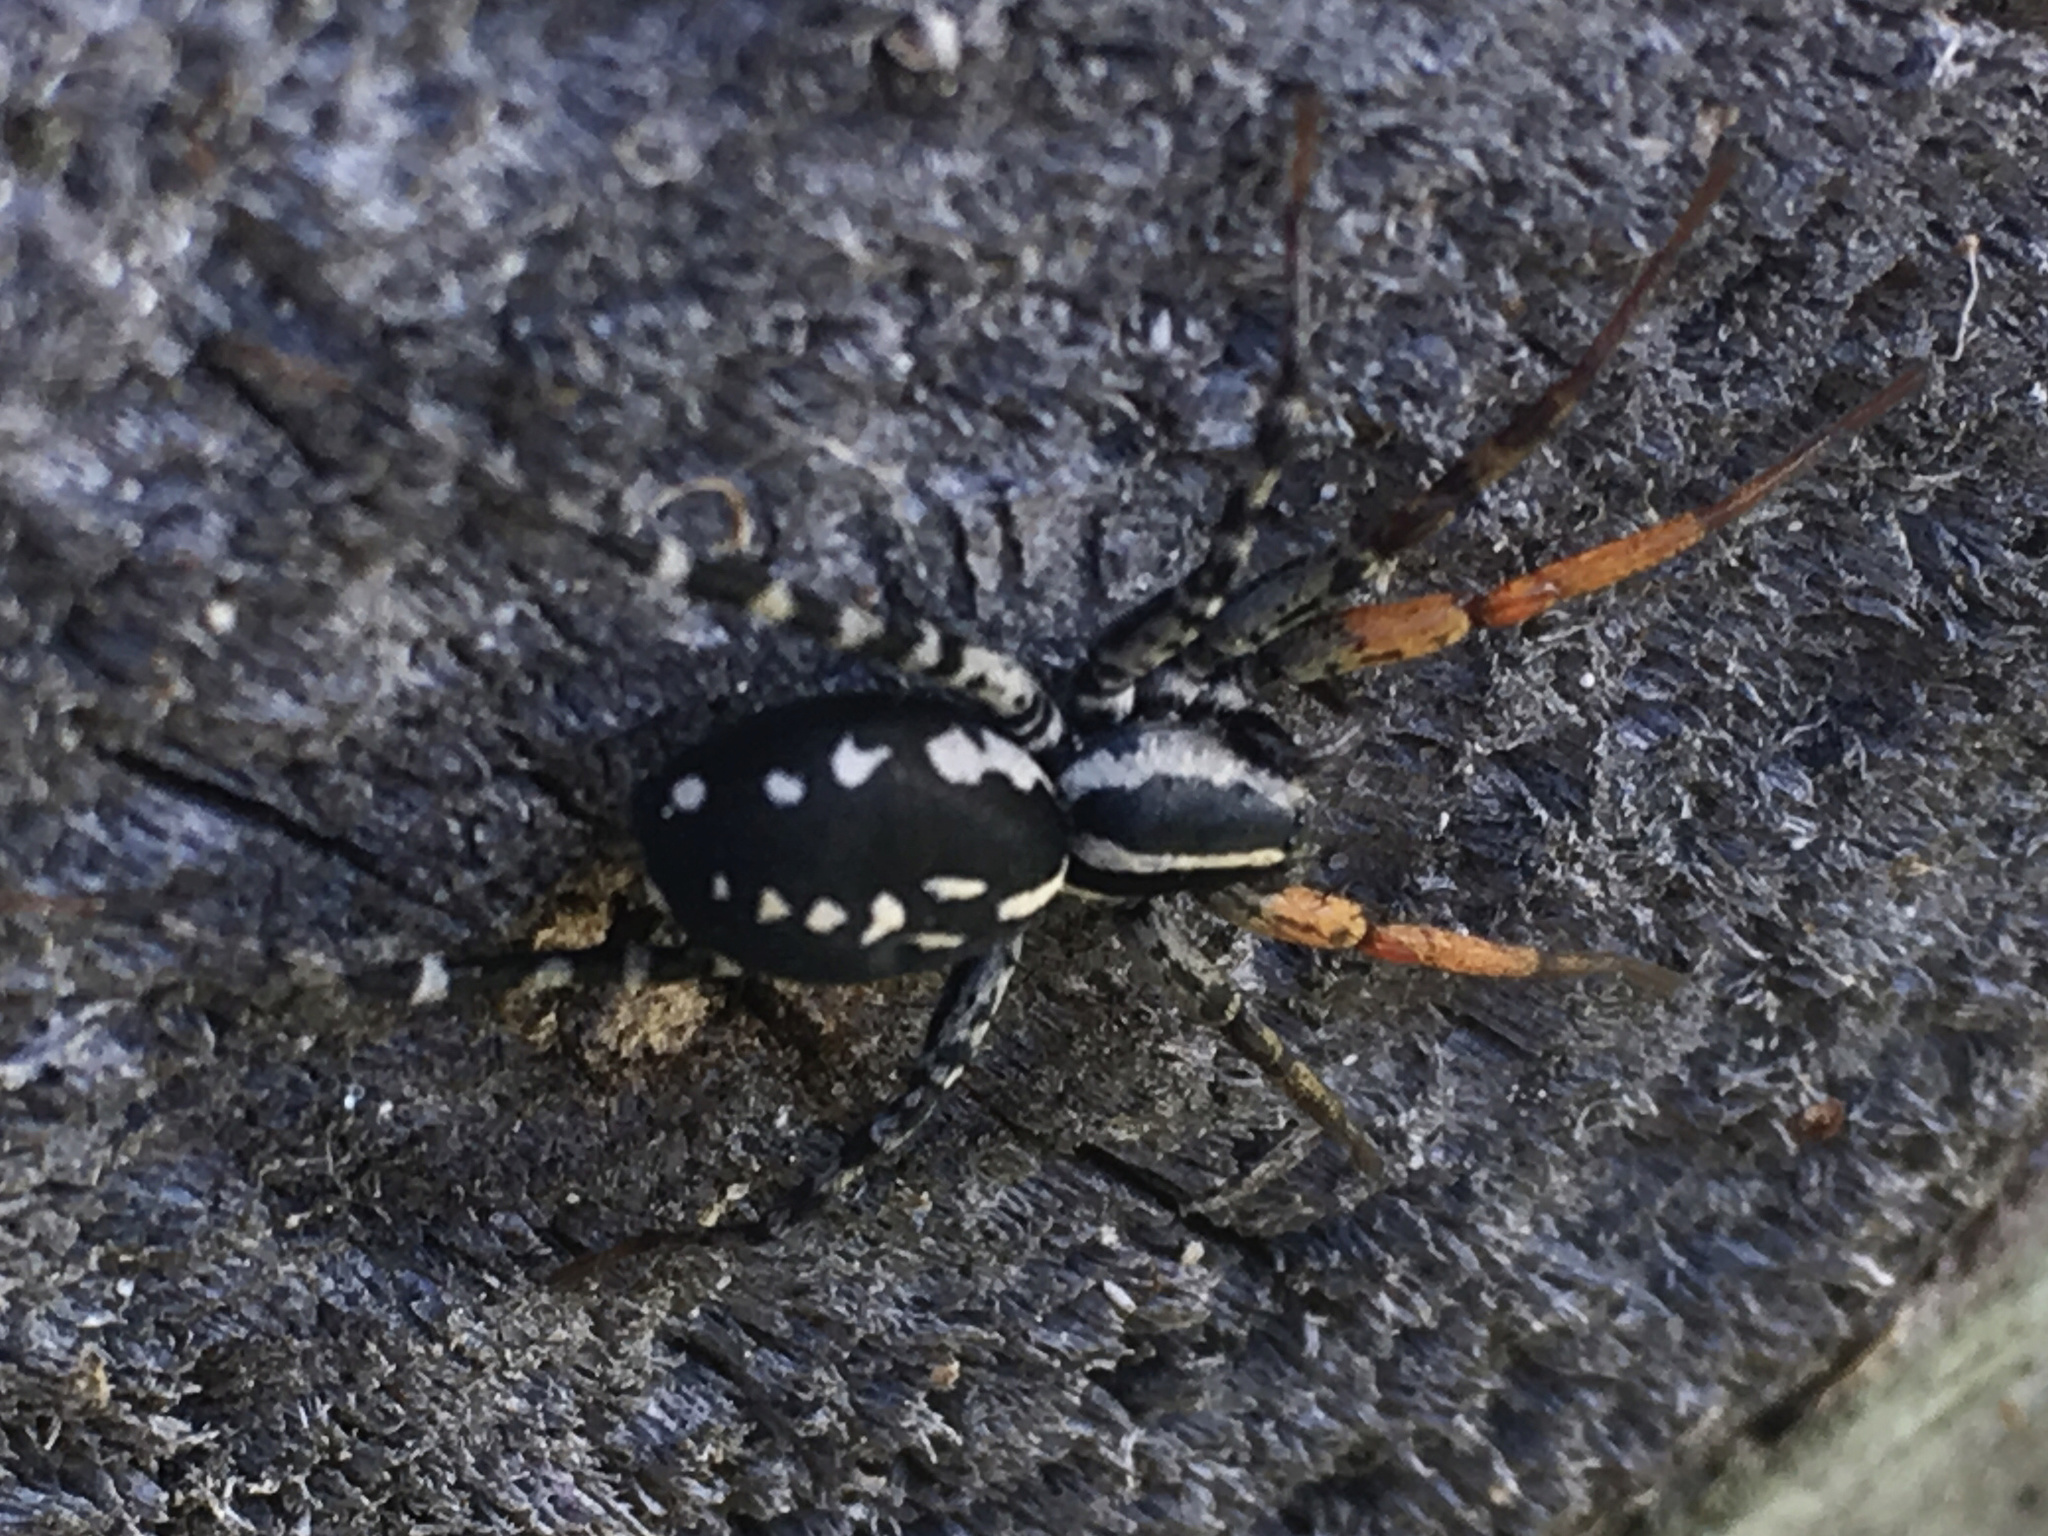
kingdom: Animalia
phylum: Arthropoda
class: Arachnida
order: Araneae
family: Corinnidae
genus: Nyssus
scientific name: Nyssus coloripes
